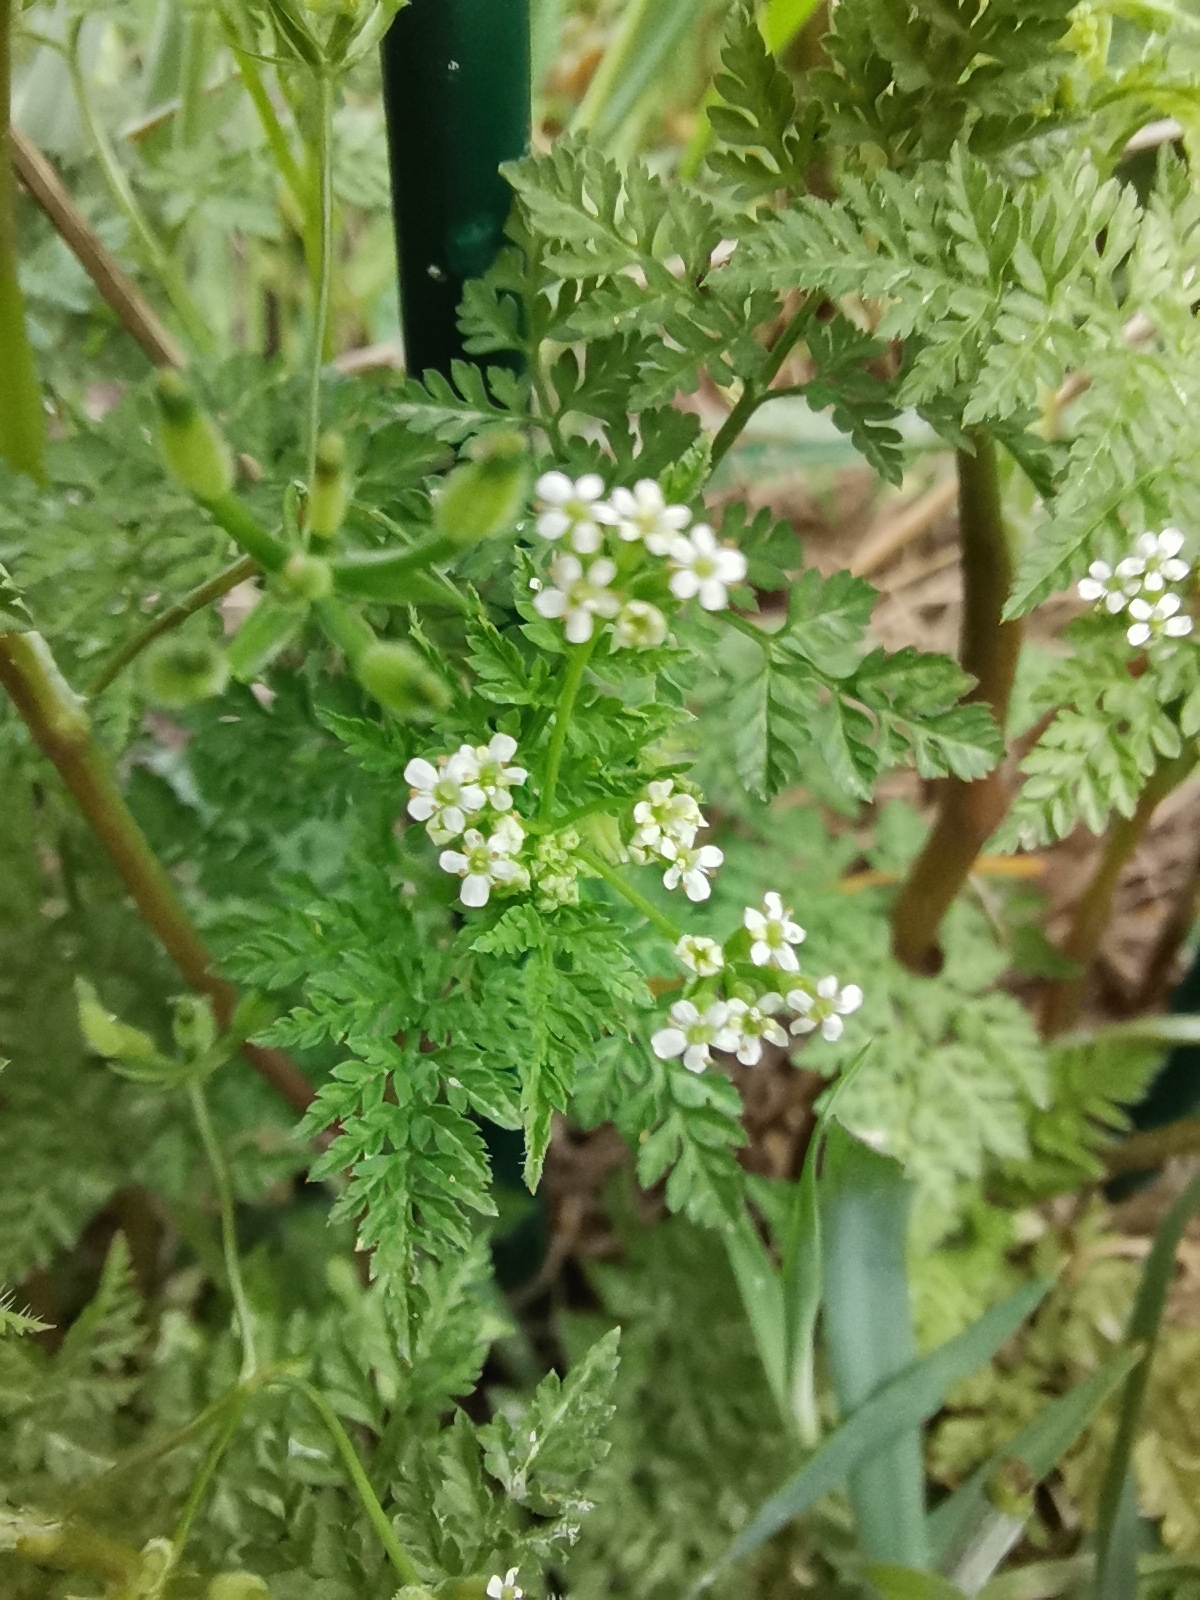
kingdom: Plantae
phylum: Tracheophyta
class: Magnoliopsida
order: Apiales
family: Apiaceae
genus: Anthriscus
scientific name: Anthriscus caucalis
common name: Bur chervil
